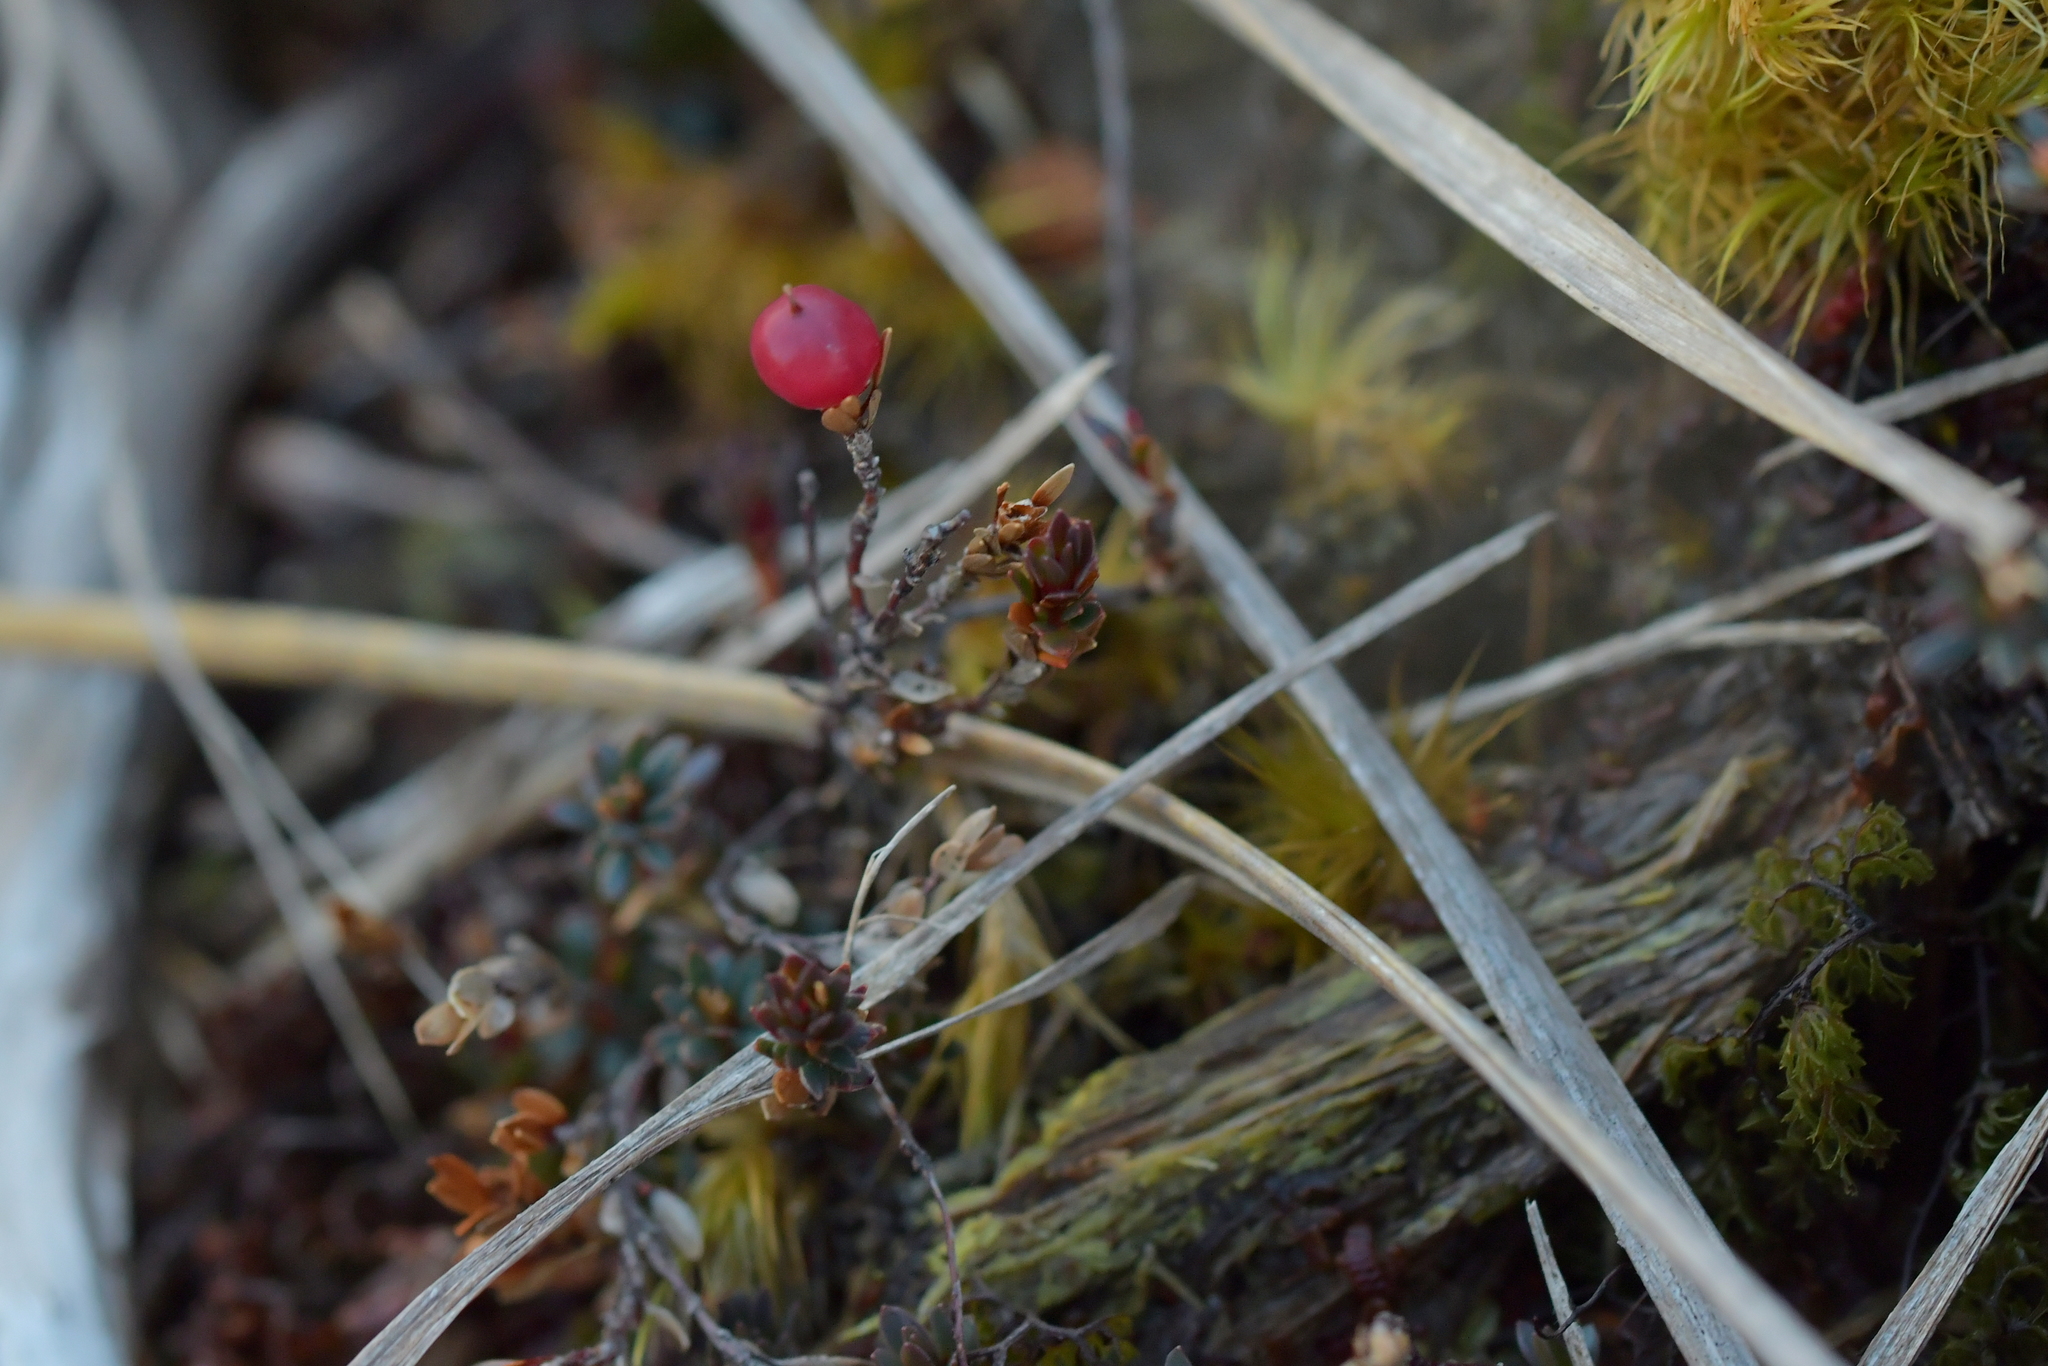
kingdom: Plantae
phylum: Tracheophyta
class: Magnoliopsida
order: Ericales
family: Ericaceae
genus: Pentachondra
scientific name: Pentachondra pumila
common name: Carpet-heath
